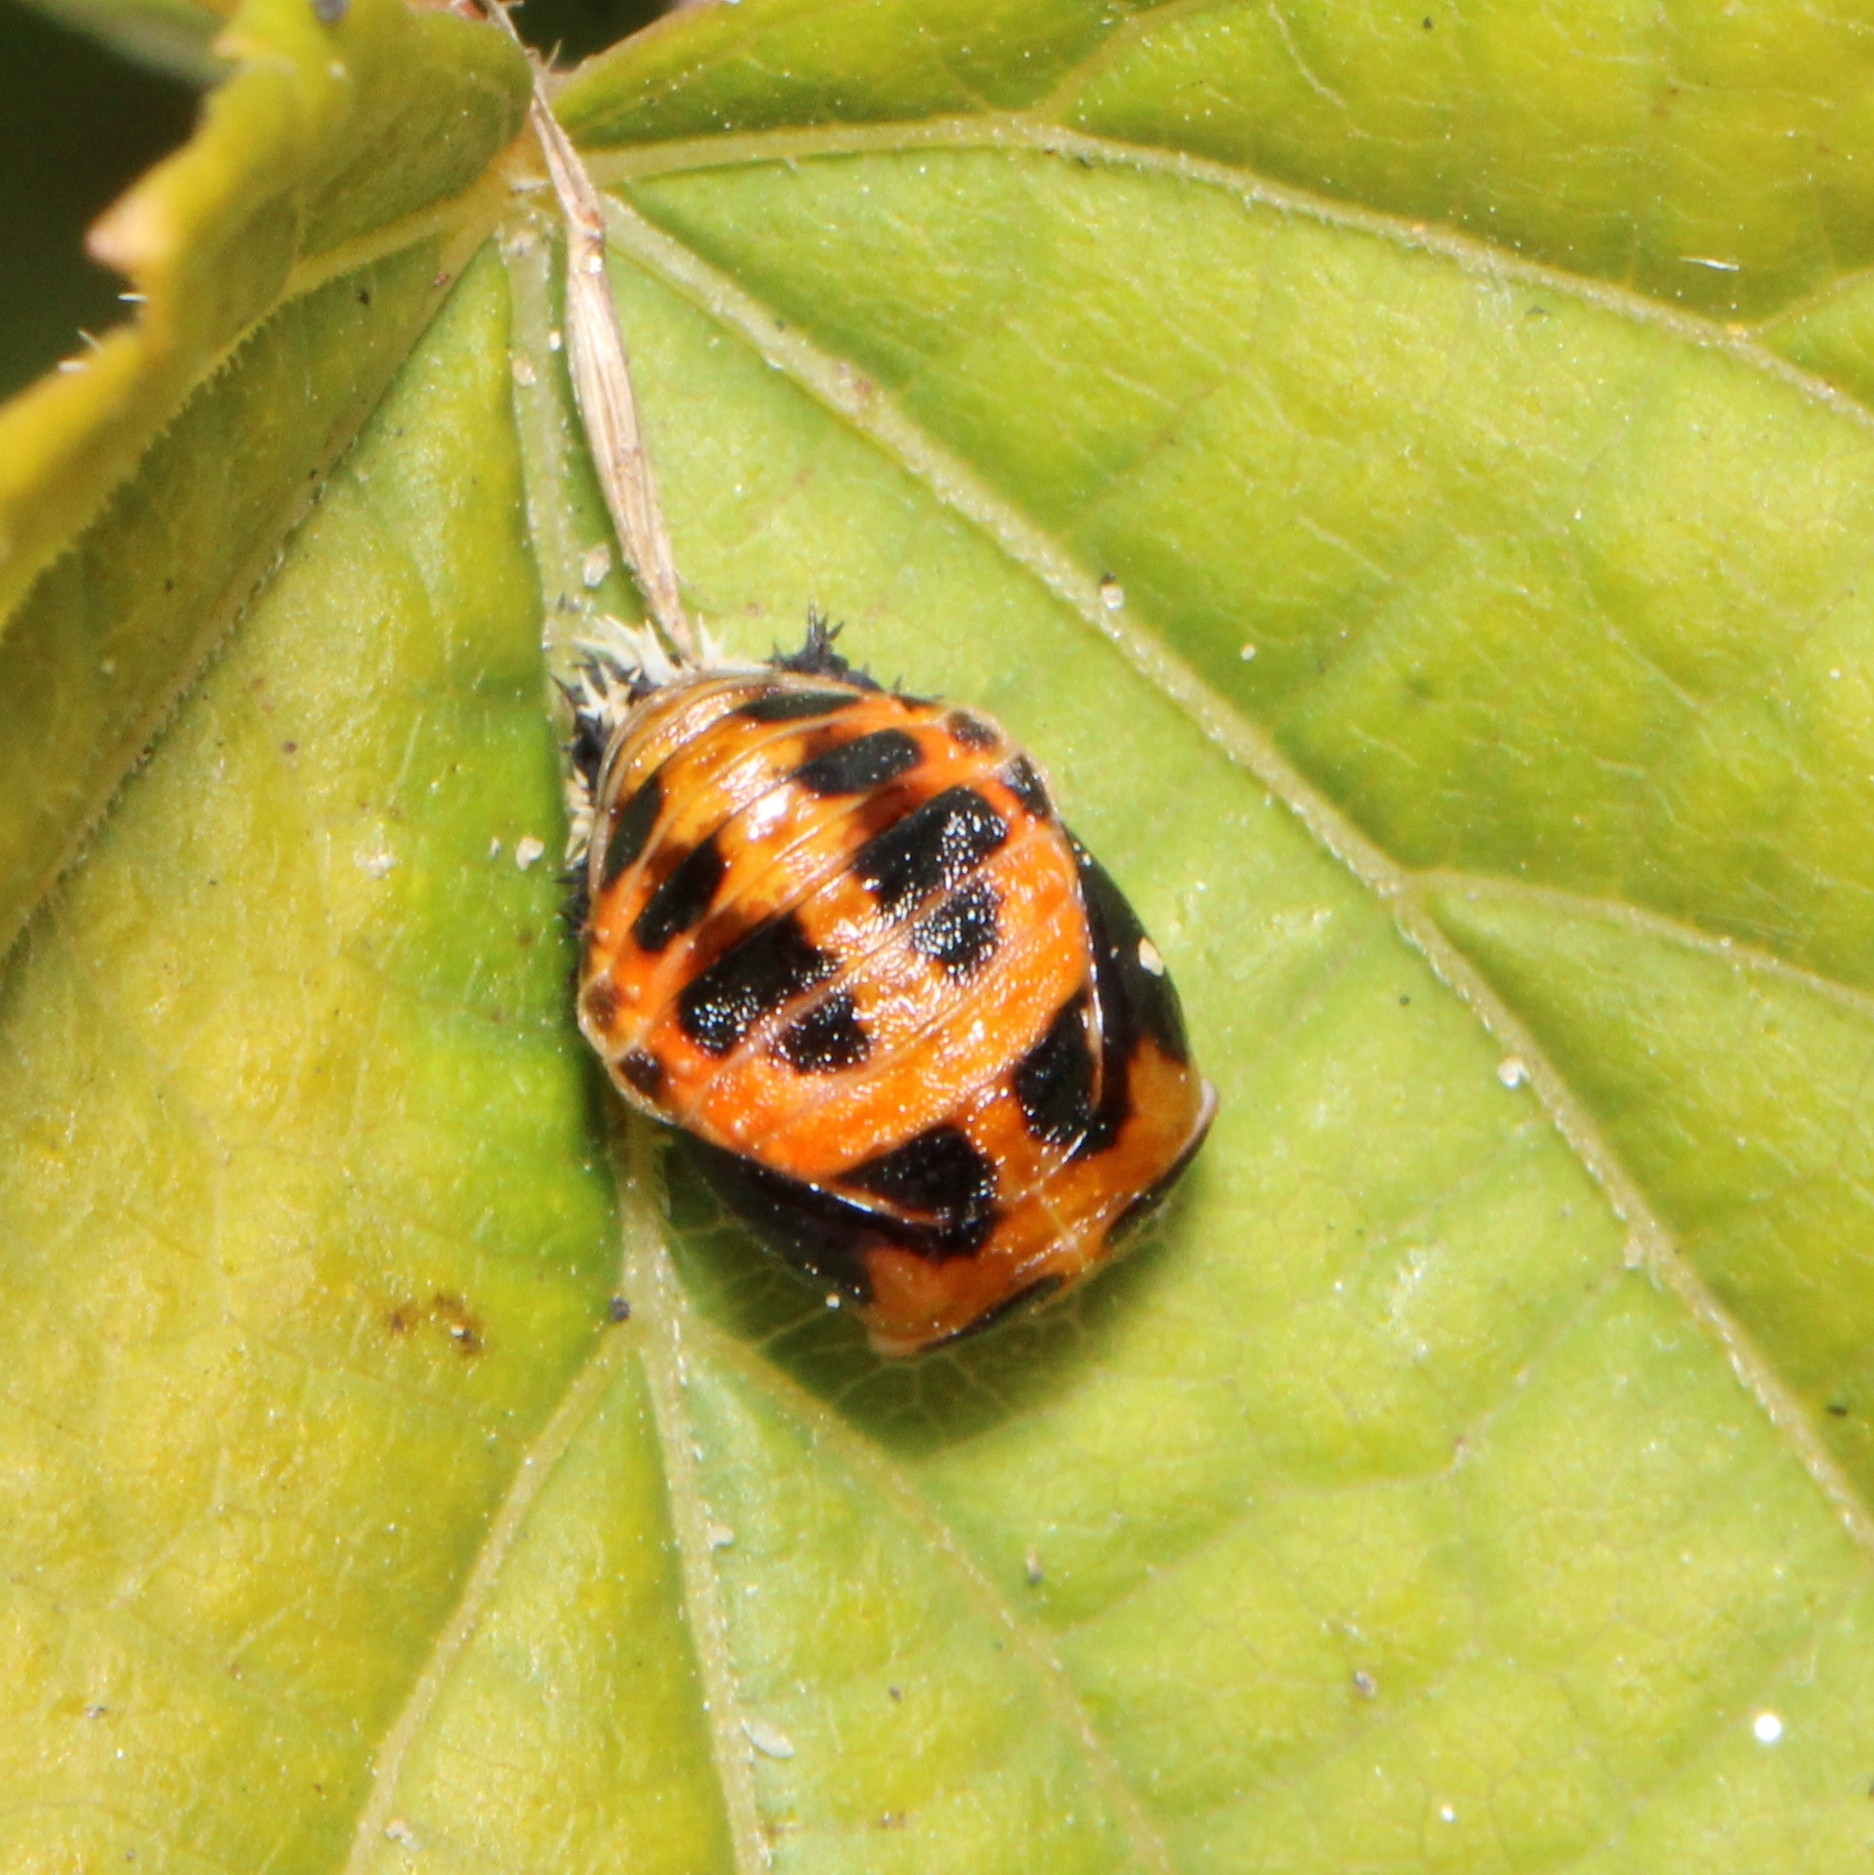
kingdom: Animalia
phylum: Arthropoda
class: Insecta
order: Coleoptera
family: Coccinellidae
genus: Harmonia
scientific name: Harmonia axyridis
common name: Harlequin ladybird
